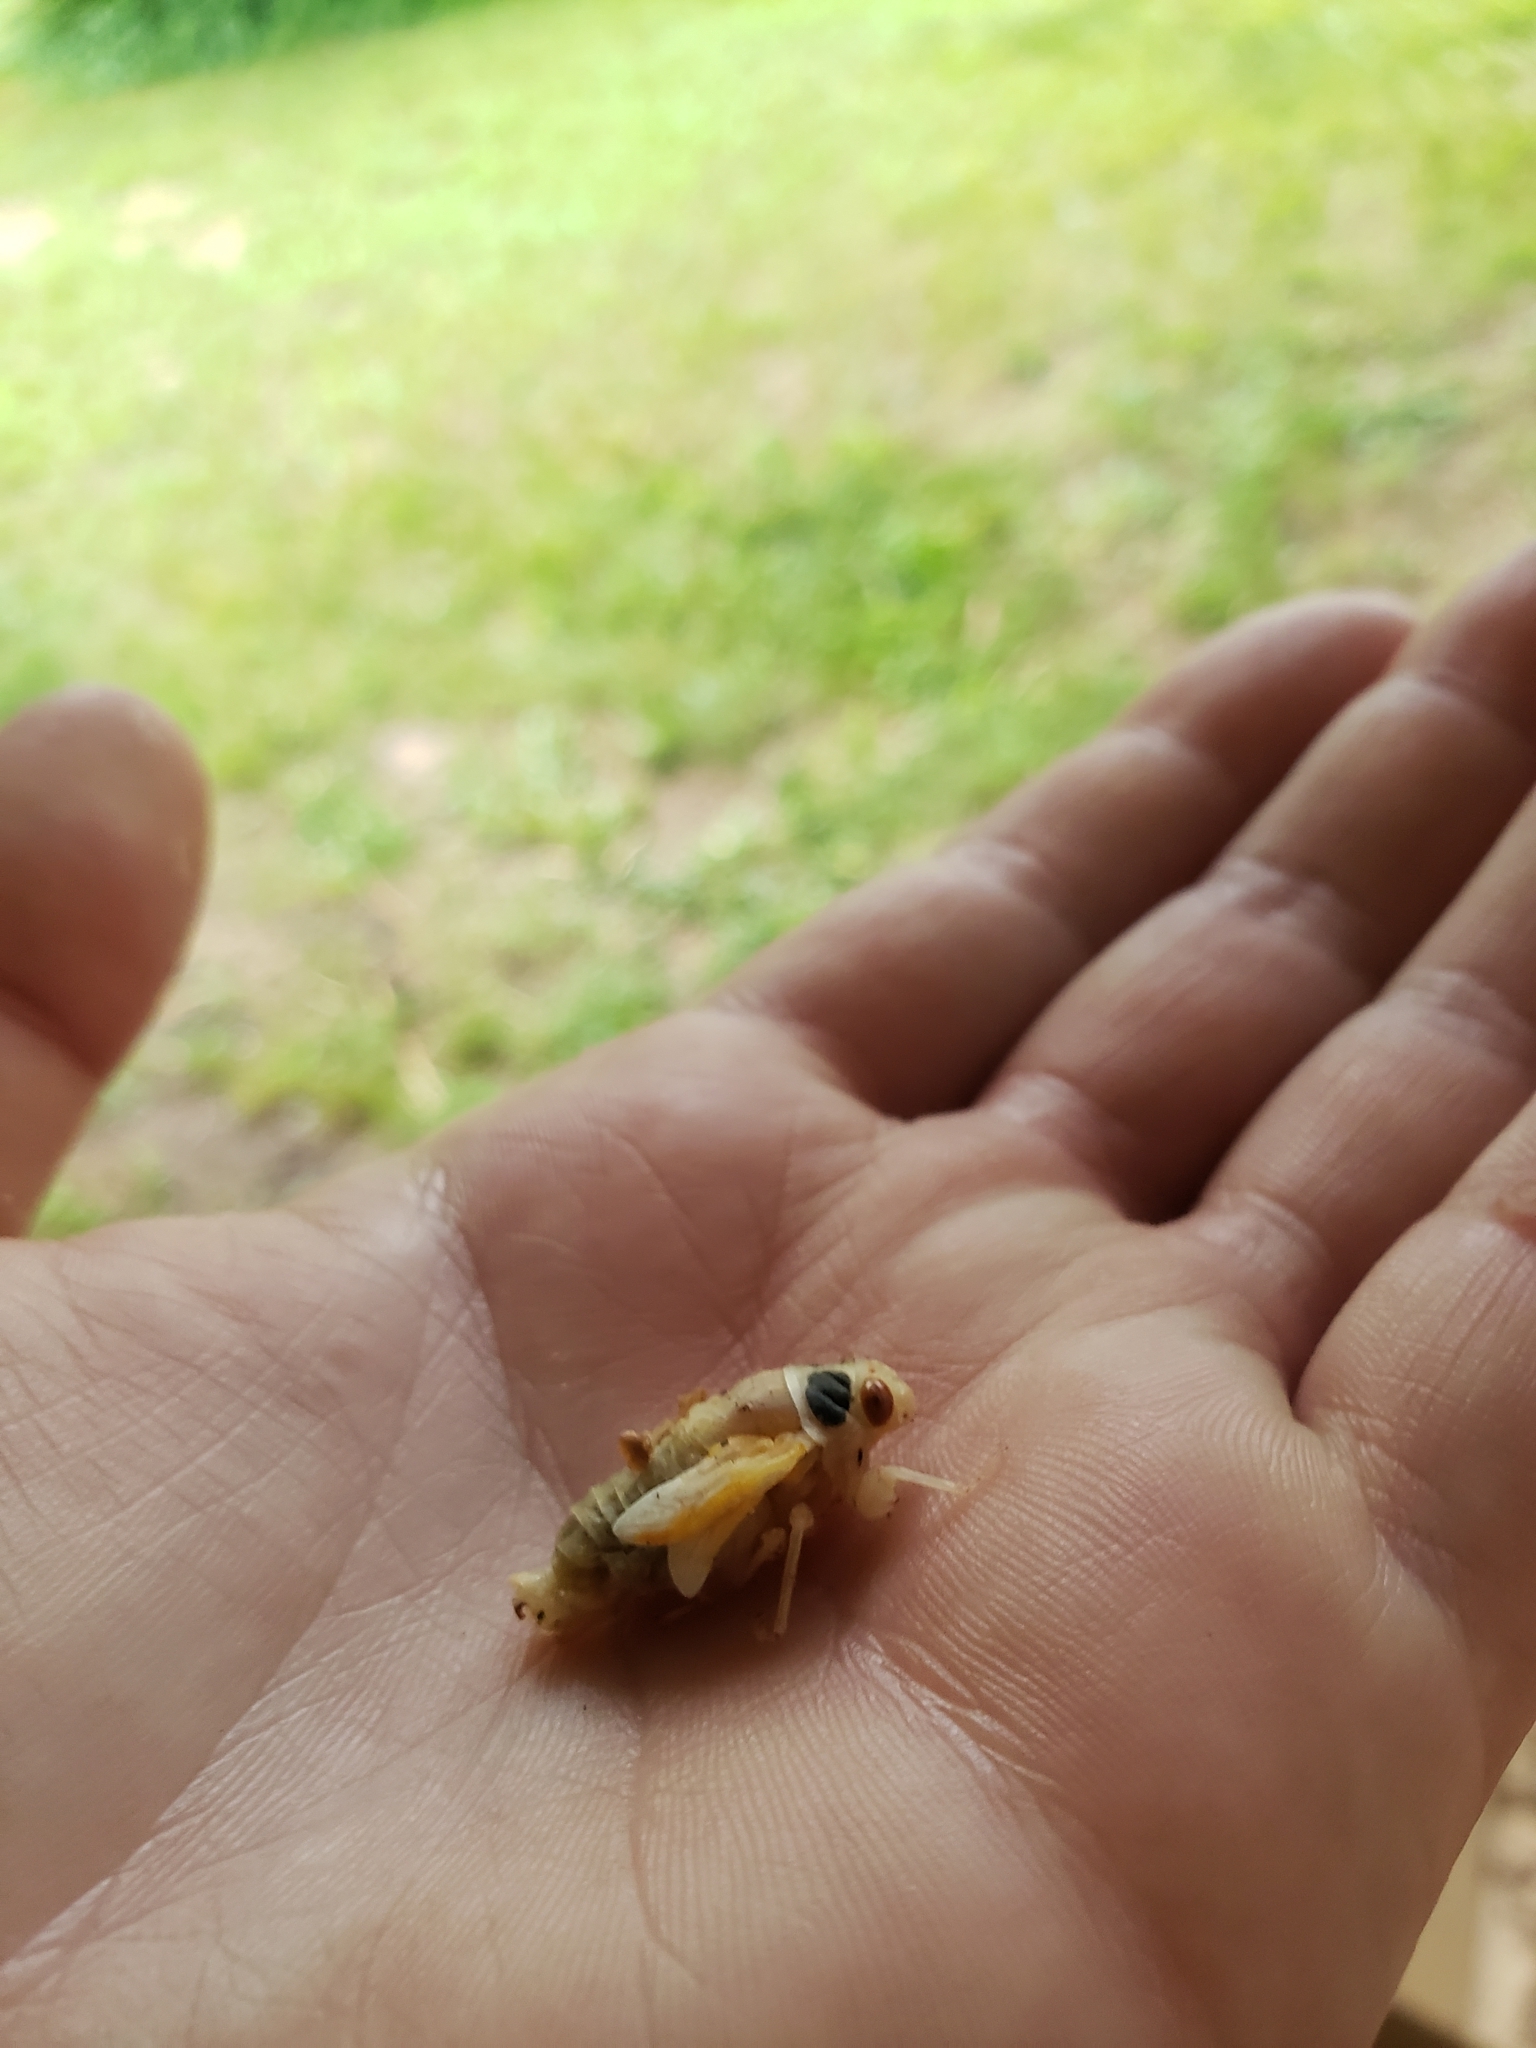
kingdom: Animalia
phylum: Arthropoda
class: Insecta
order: Hemiptera
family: Cicadidae
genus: Magicicada
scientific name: Magicicada
